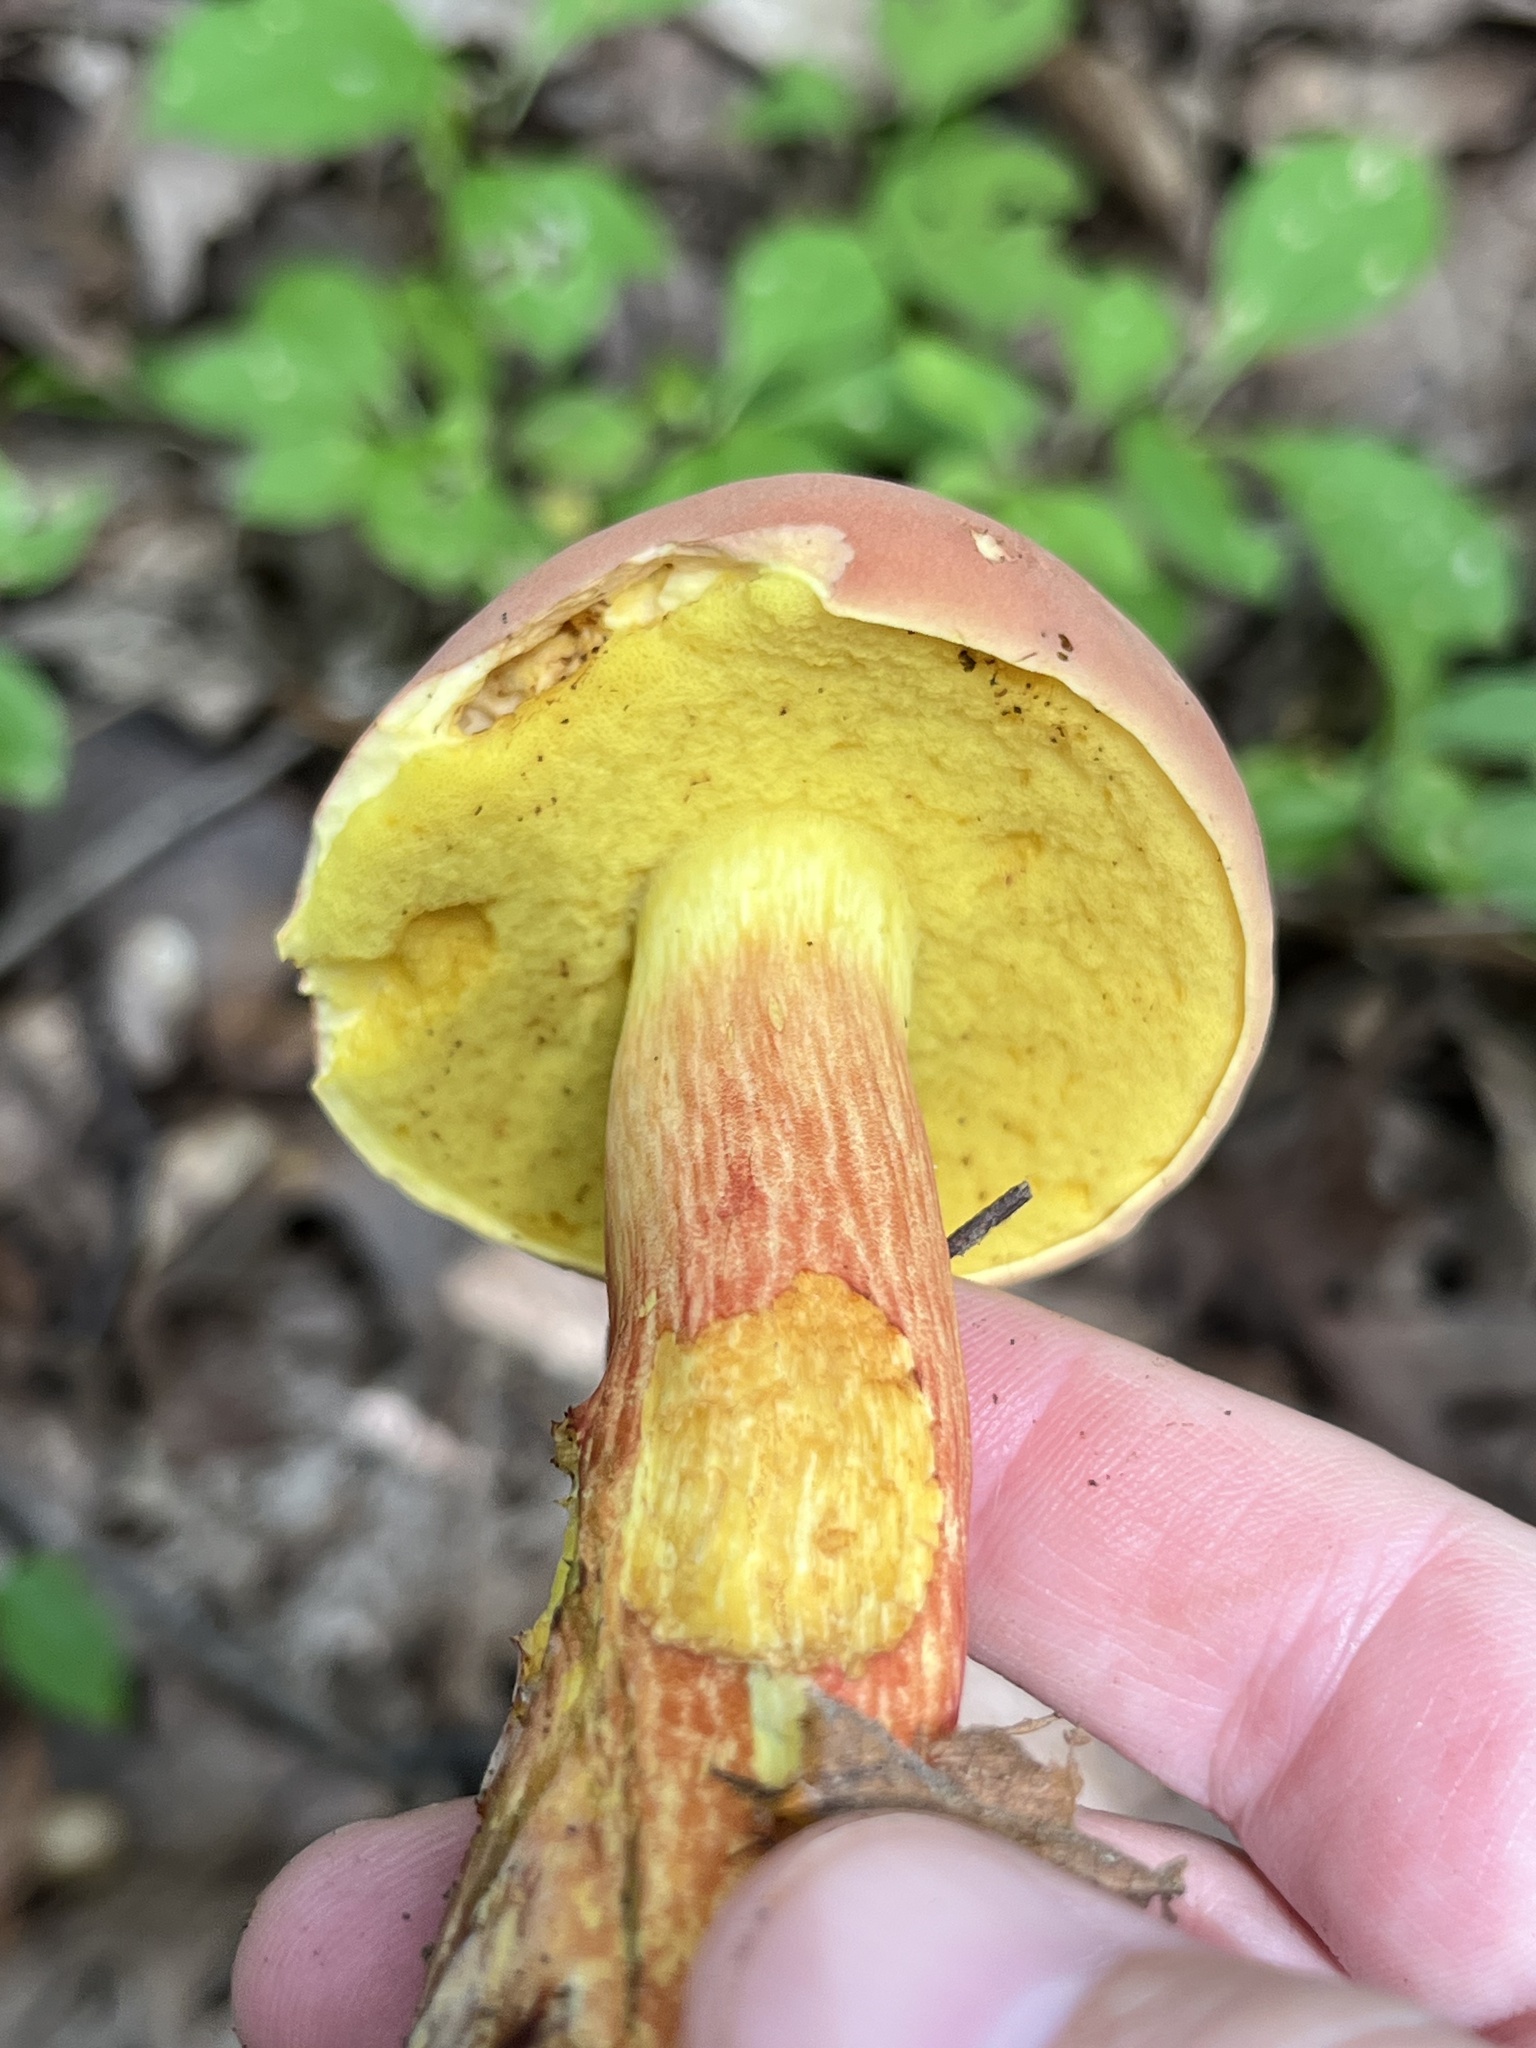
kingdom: Fungi
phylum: Basidiomycota
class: Agaricomycetes
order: Boletales
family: Boletaceae
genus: Baorangia
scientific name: Baorangia bicolor
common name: Two-colored bolete
